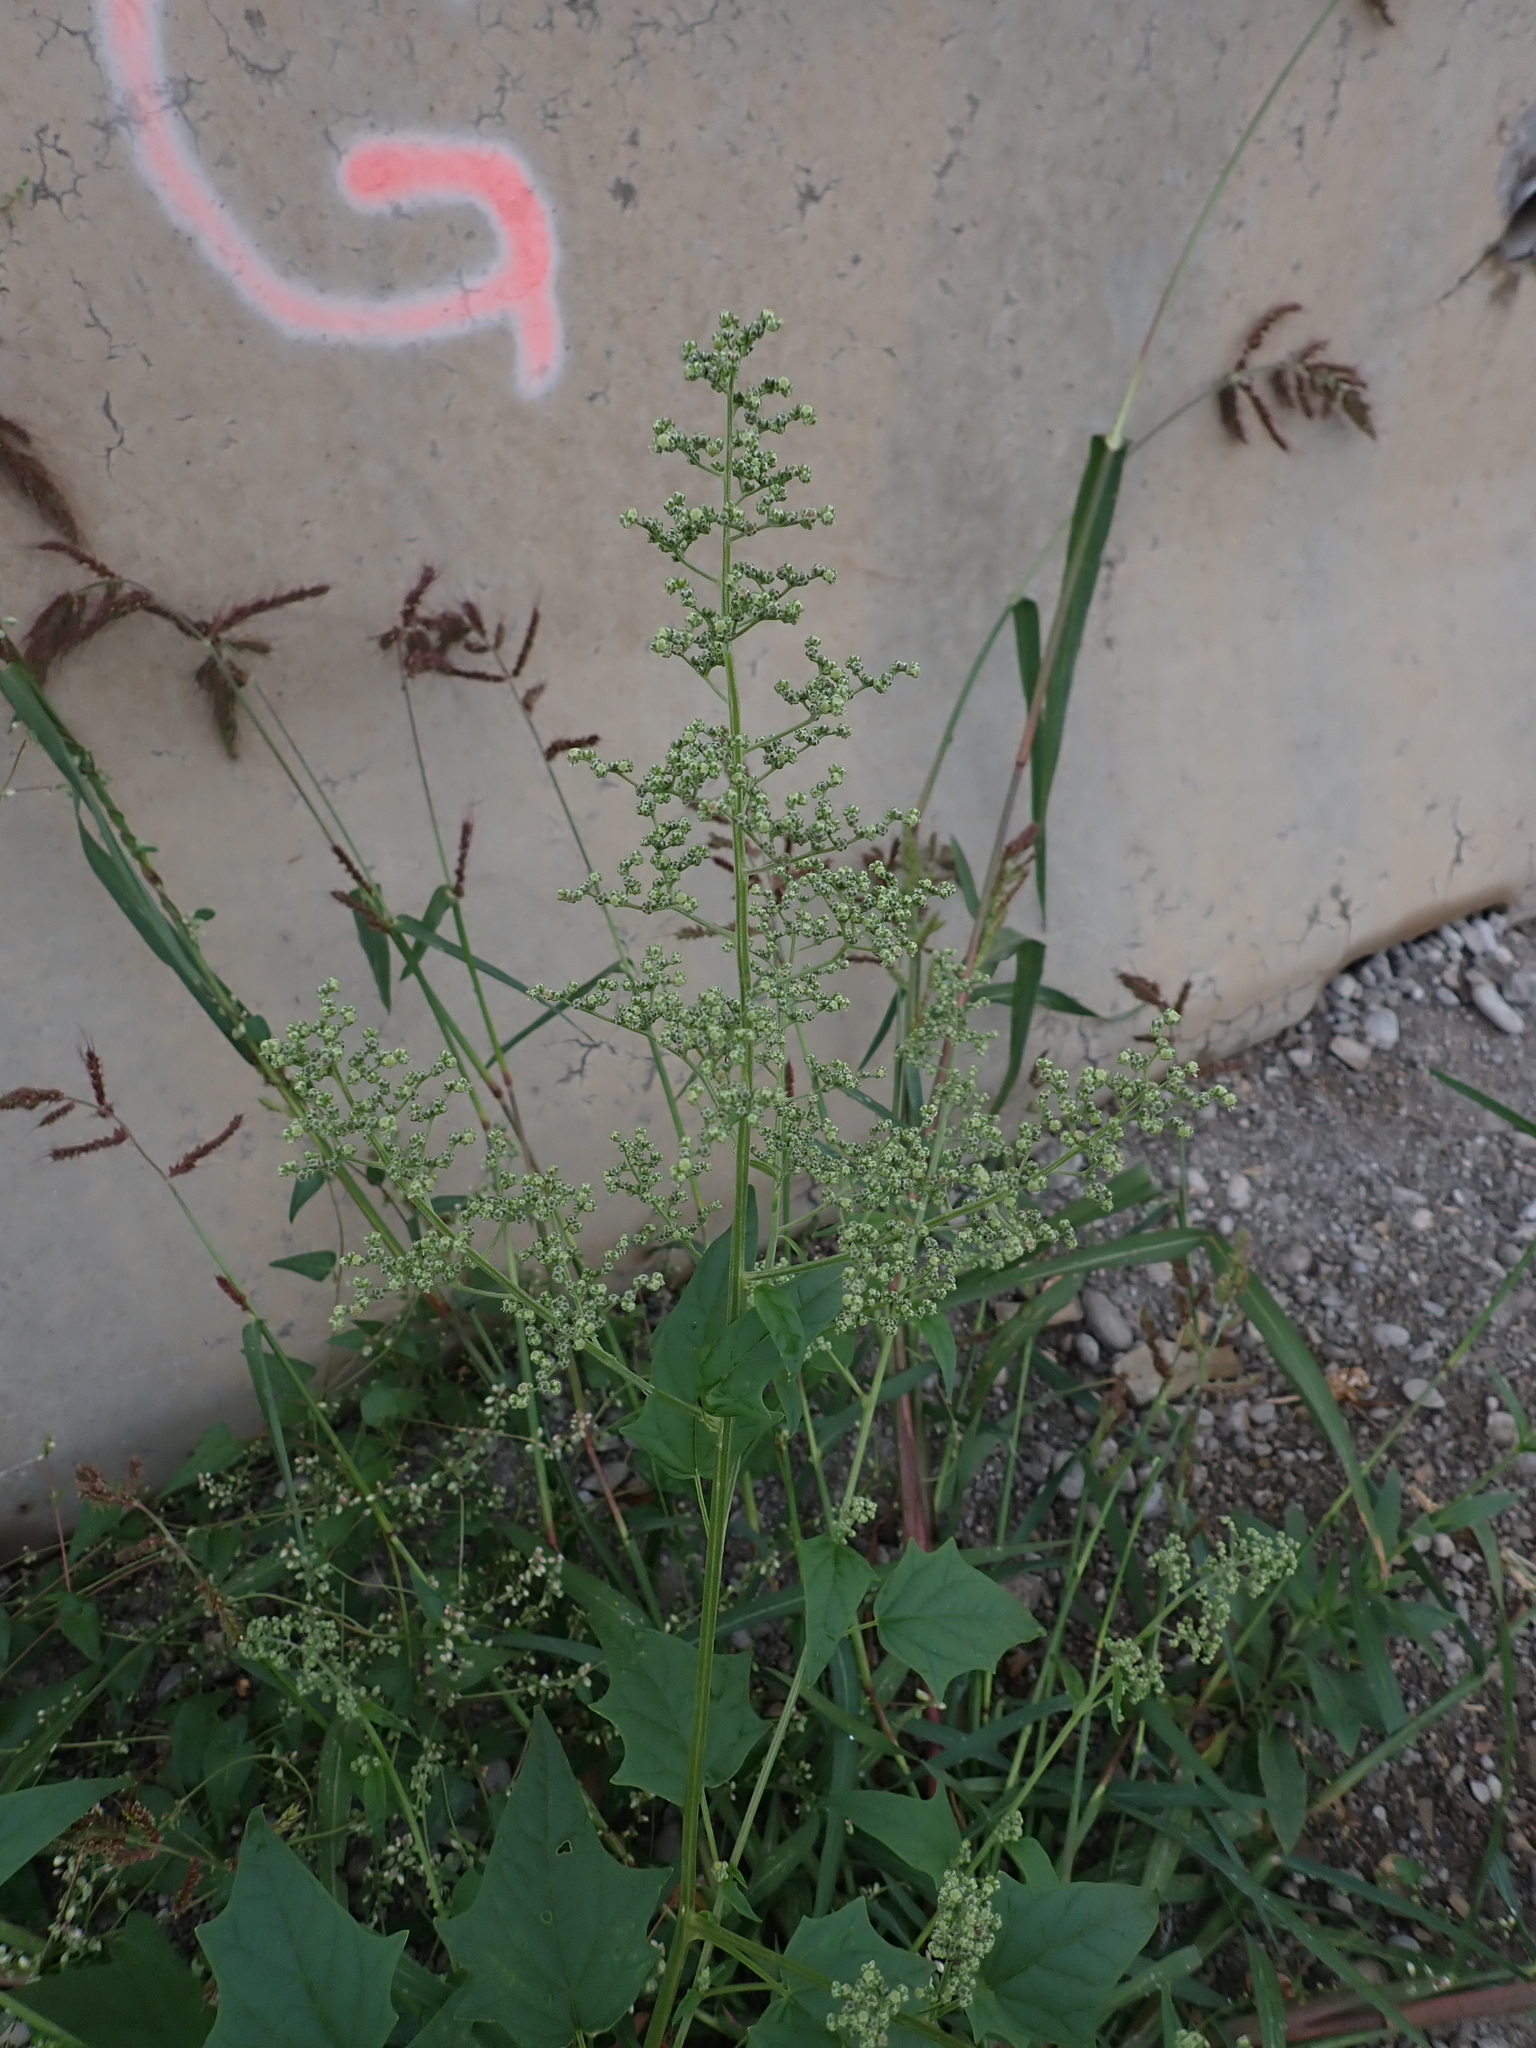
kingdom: Plantae
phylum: Tracheophyta
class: Magnoliopsida
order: Caryophyllales
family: Amaranthaceae
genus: Chenopodiastrum
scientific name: Chenopodiastrum hybridum
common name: Mapleleaf goosefoot
